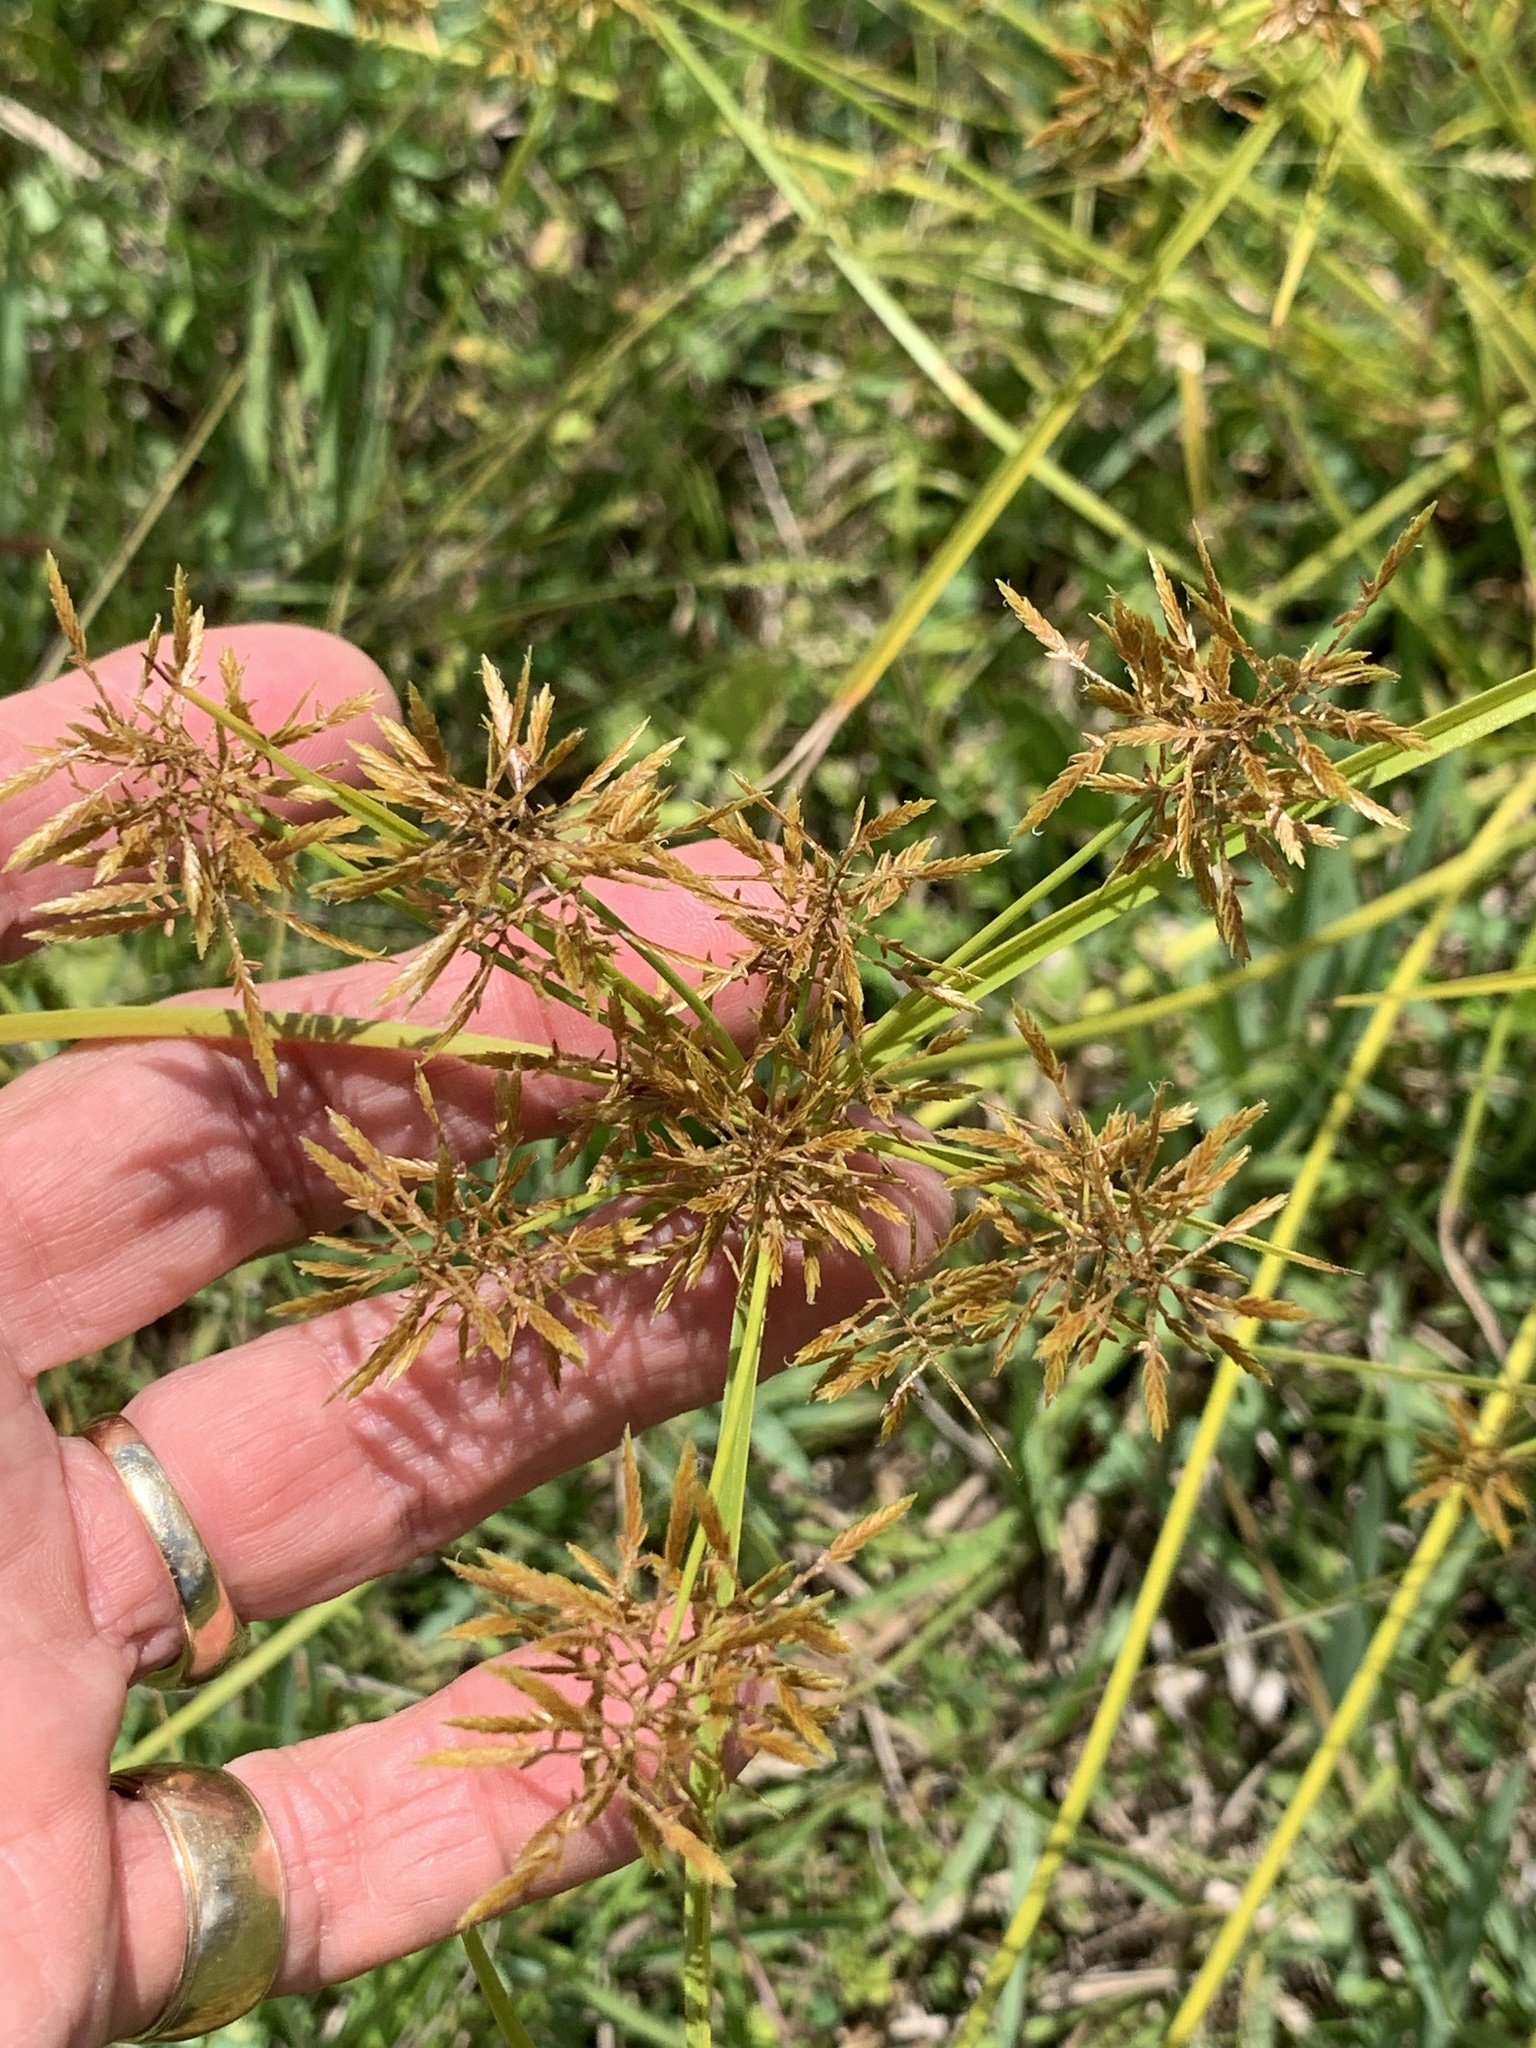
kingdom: Plantae
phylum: Tracheophyta
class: Liliopsida
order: Poales
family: Cyperaceae
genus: Cyperus
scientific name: Cyperus polystachyos
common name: Bunchy flat sedge
